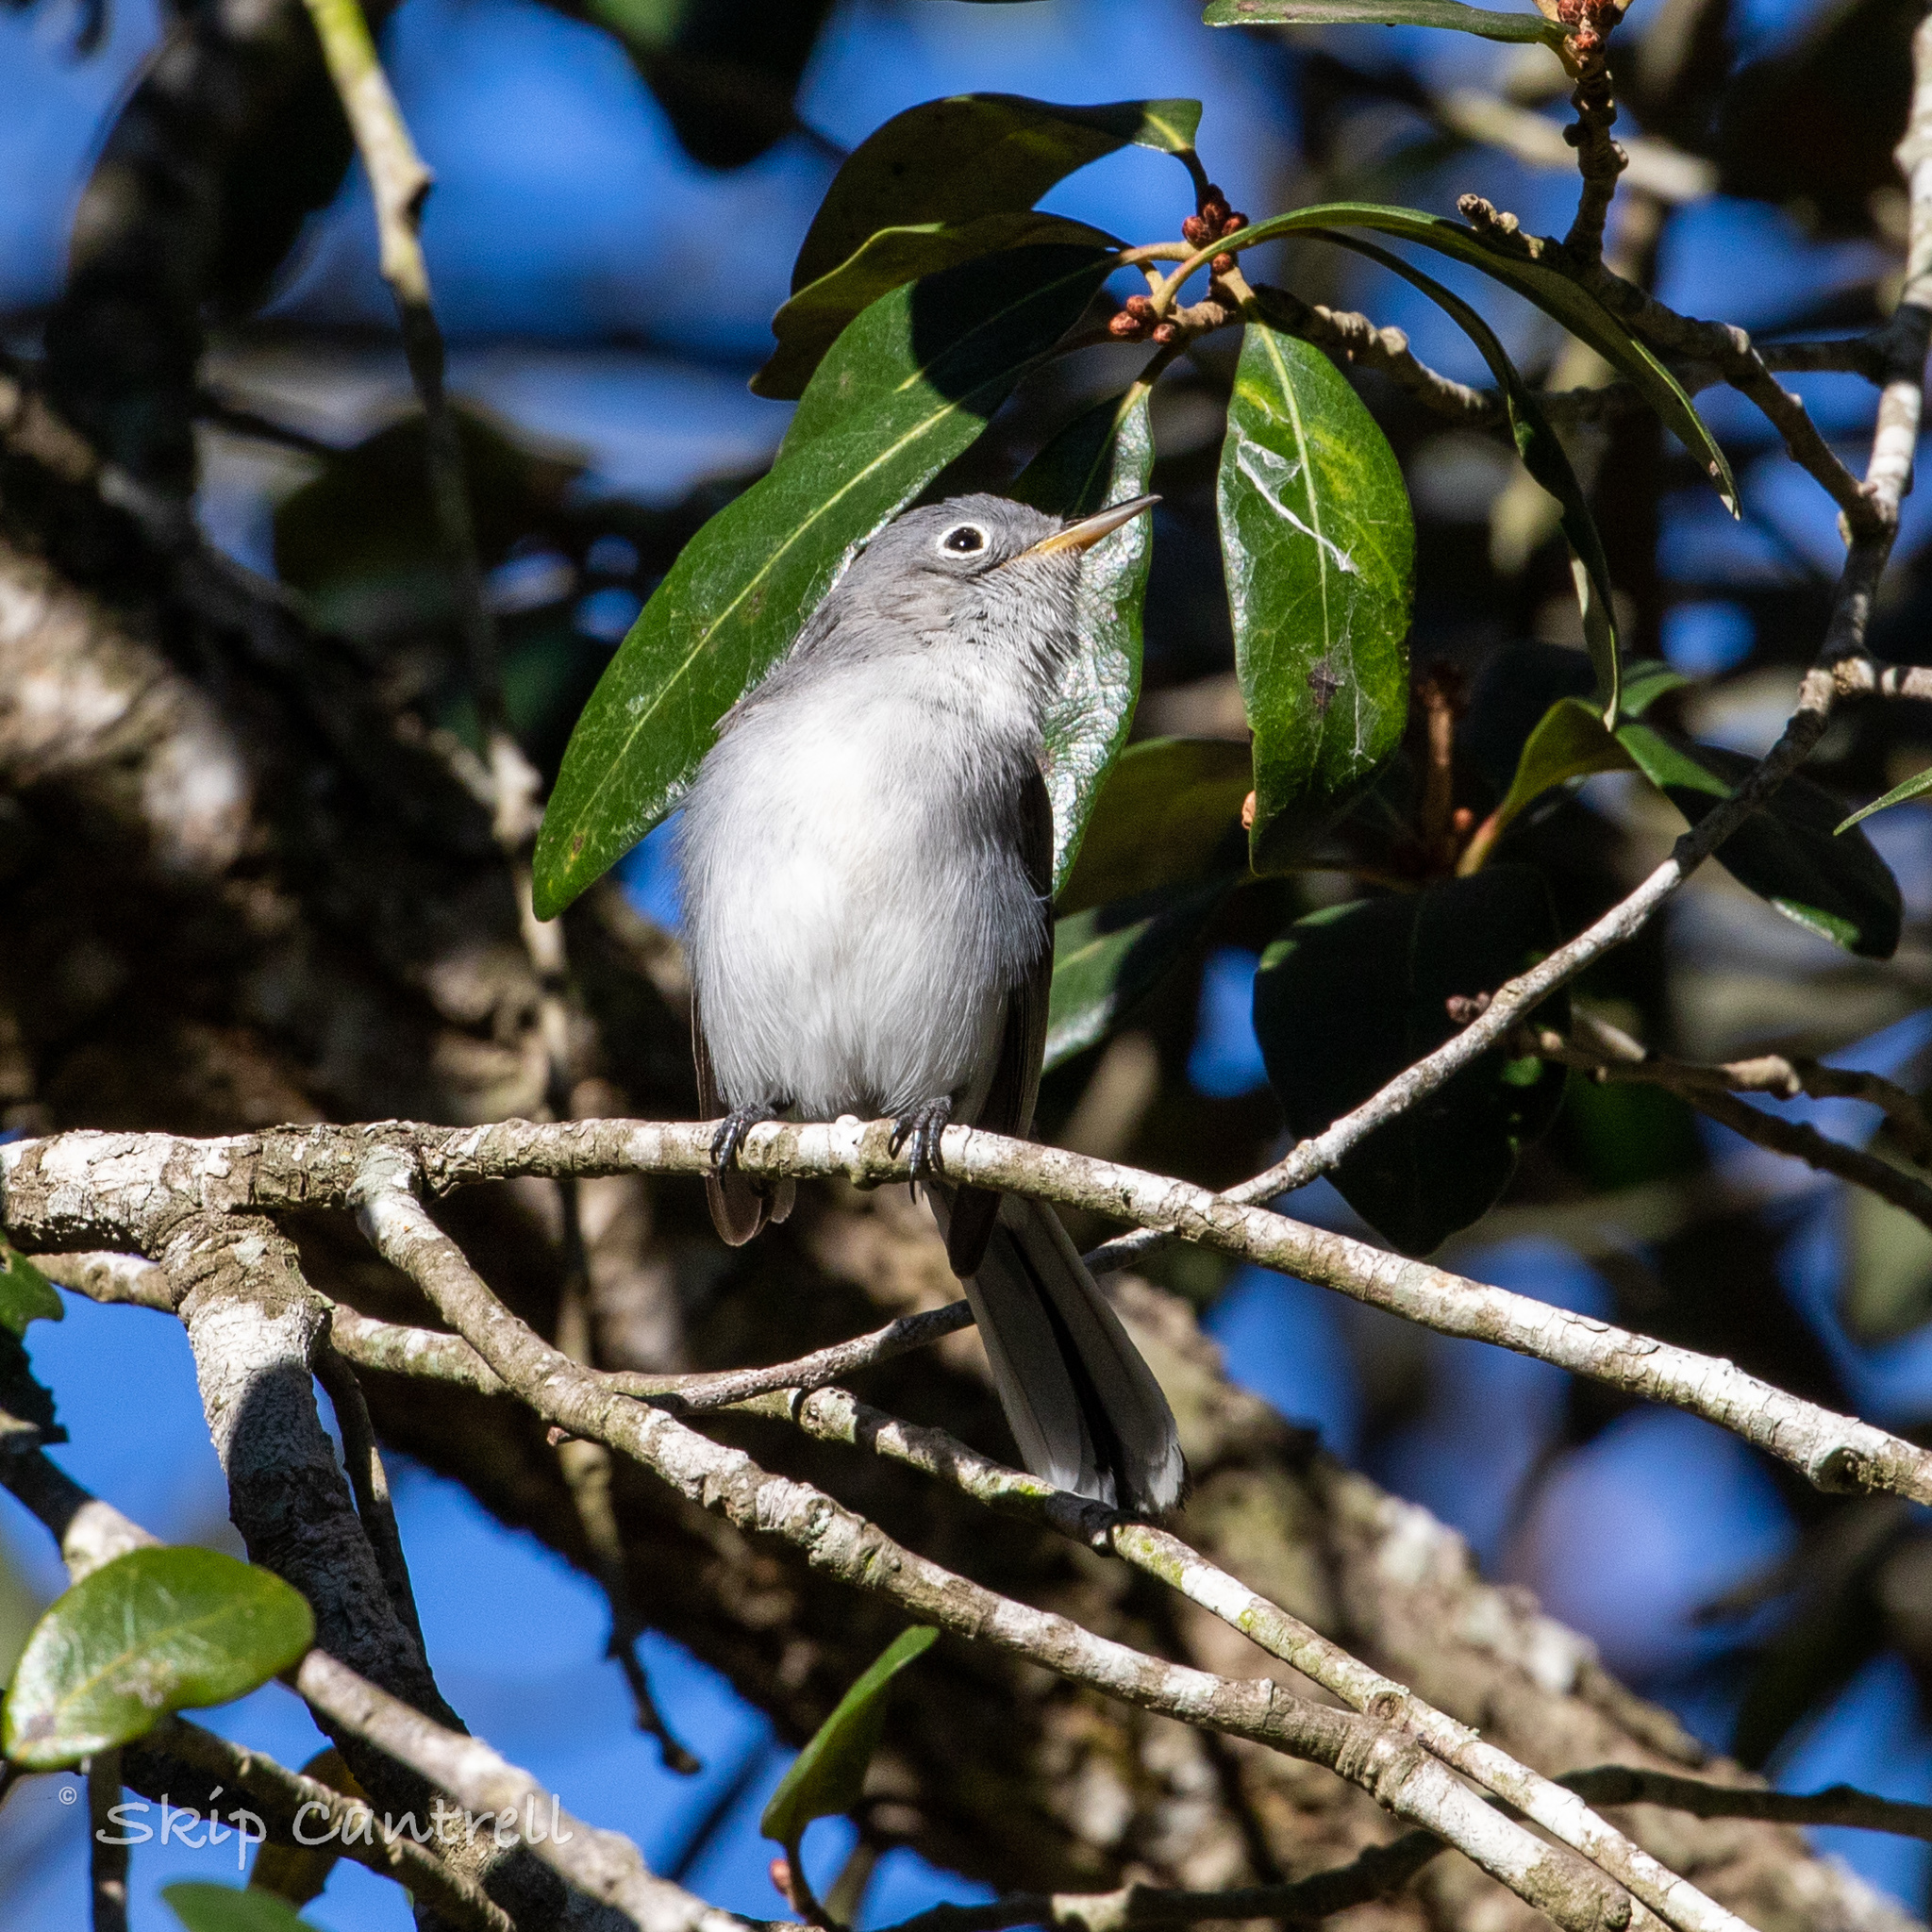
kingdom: Animalia
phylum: Chordata
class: Aves
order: Passeriformes
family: Polioptilidae
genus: Polioptila
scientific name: Polioptila caerulea
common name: Blue-gray gnatcatcher
